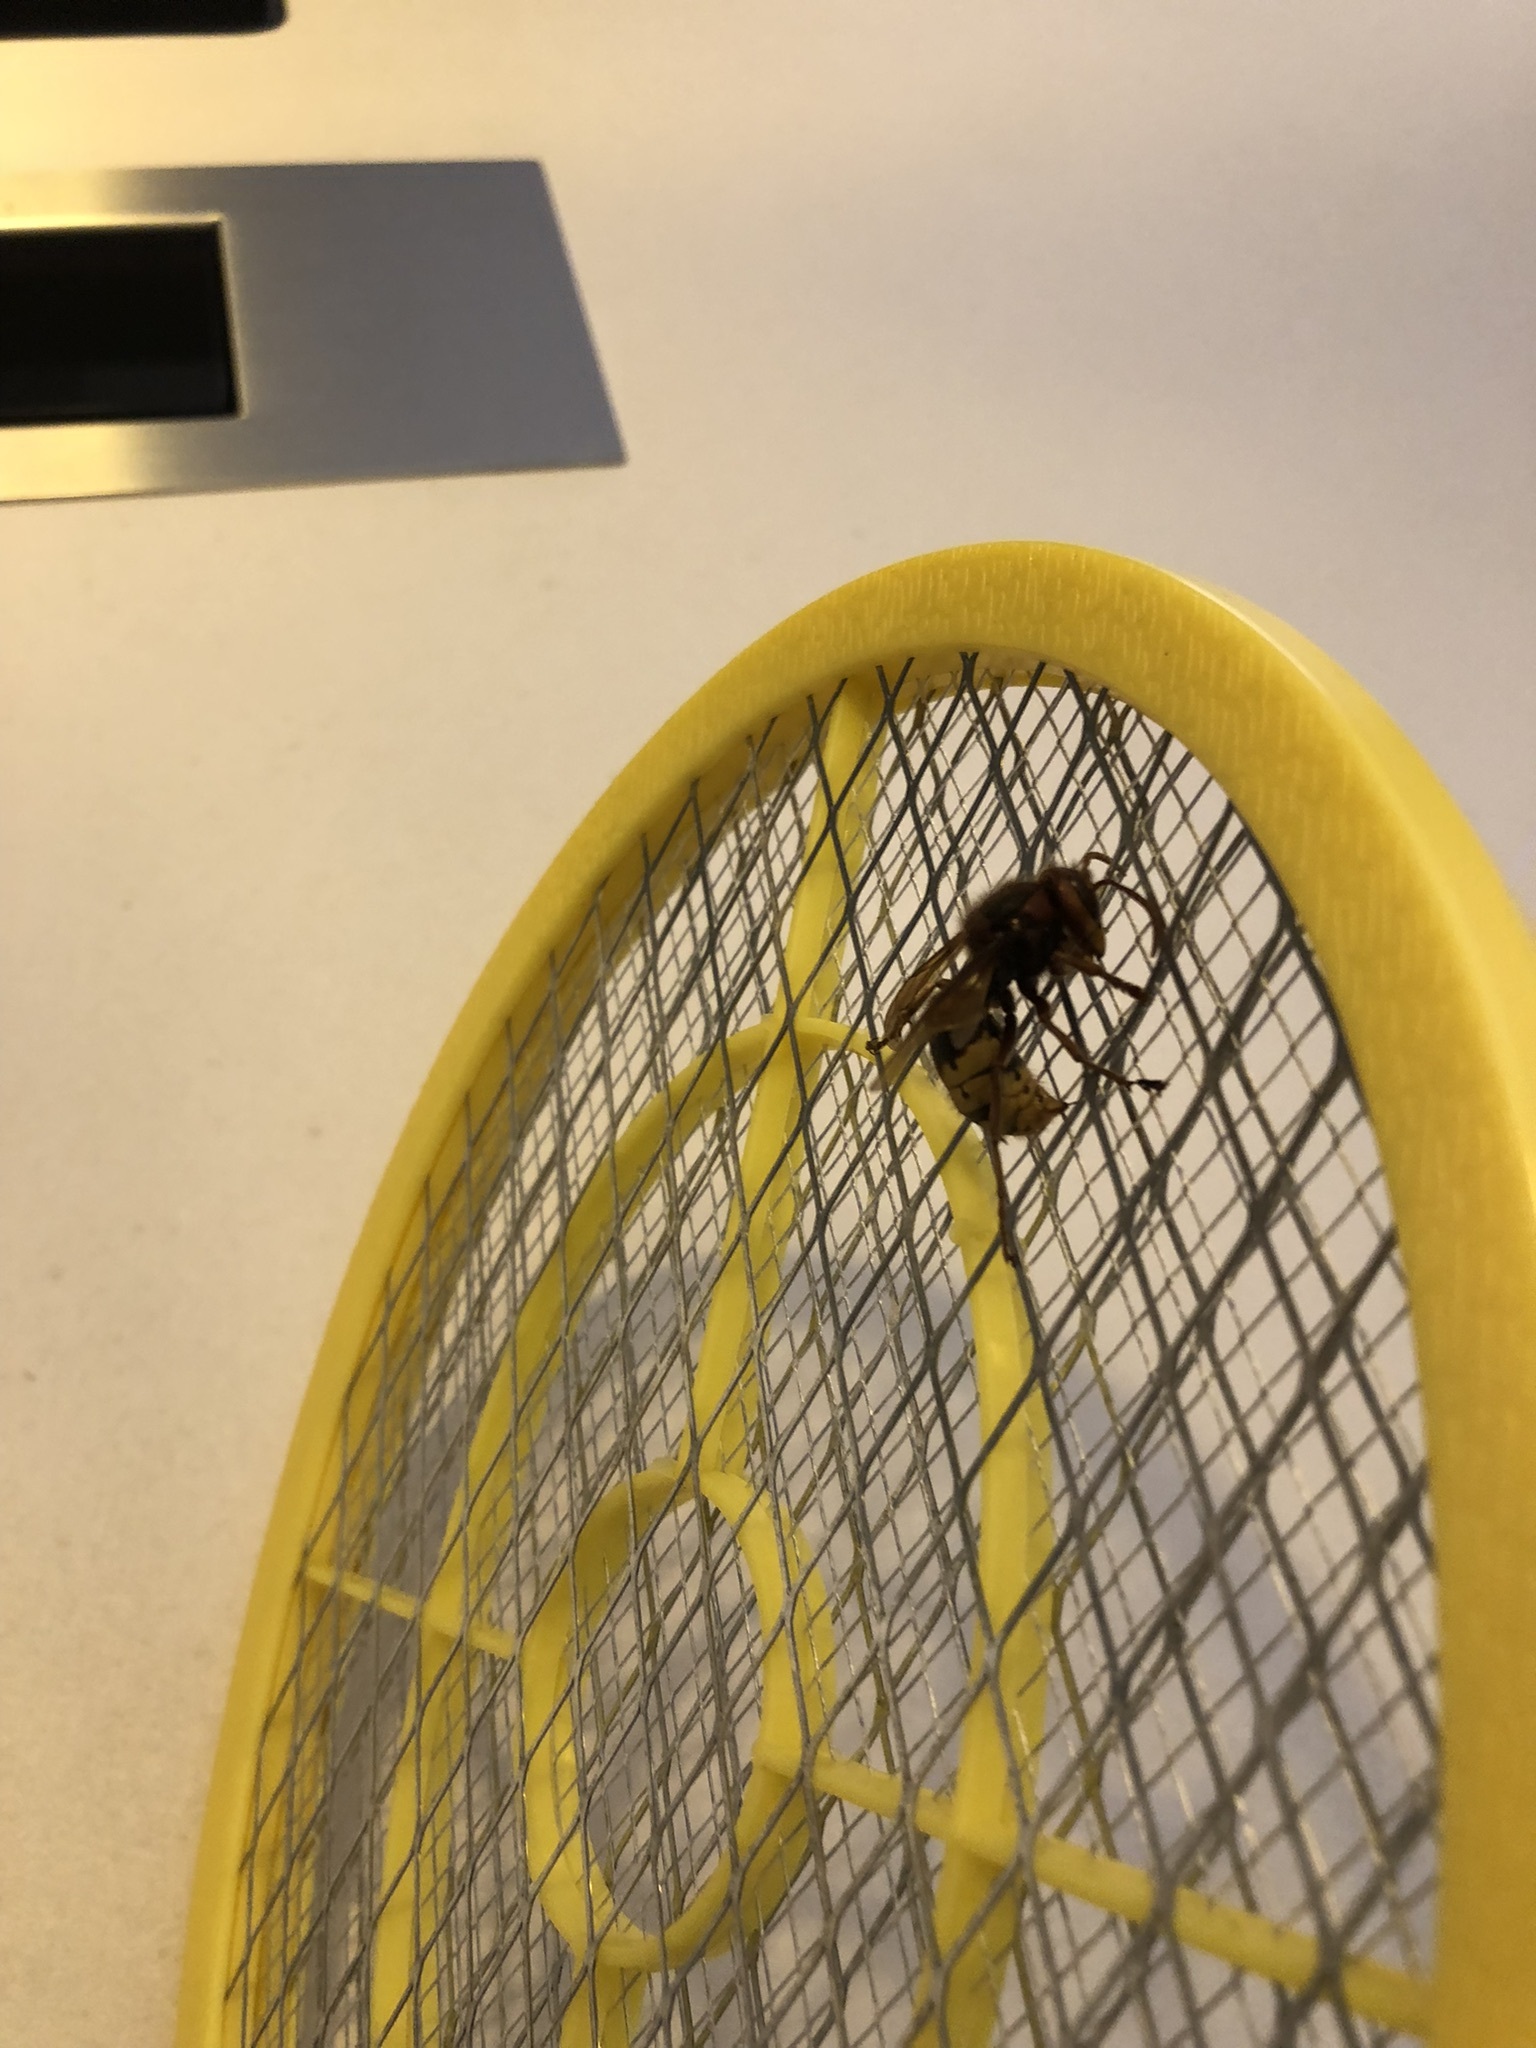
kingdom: Animalia
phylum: Arthropoda
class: Insecta
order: Hymenoptera
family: Vespidae
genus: Vespa
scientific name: Vespa crabro
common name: Hornet
